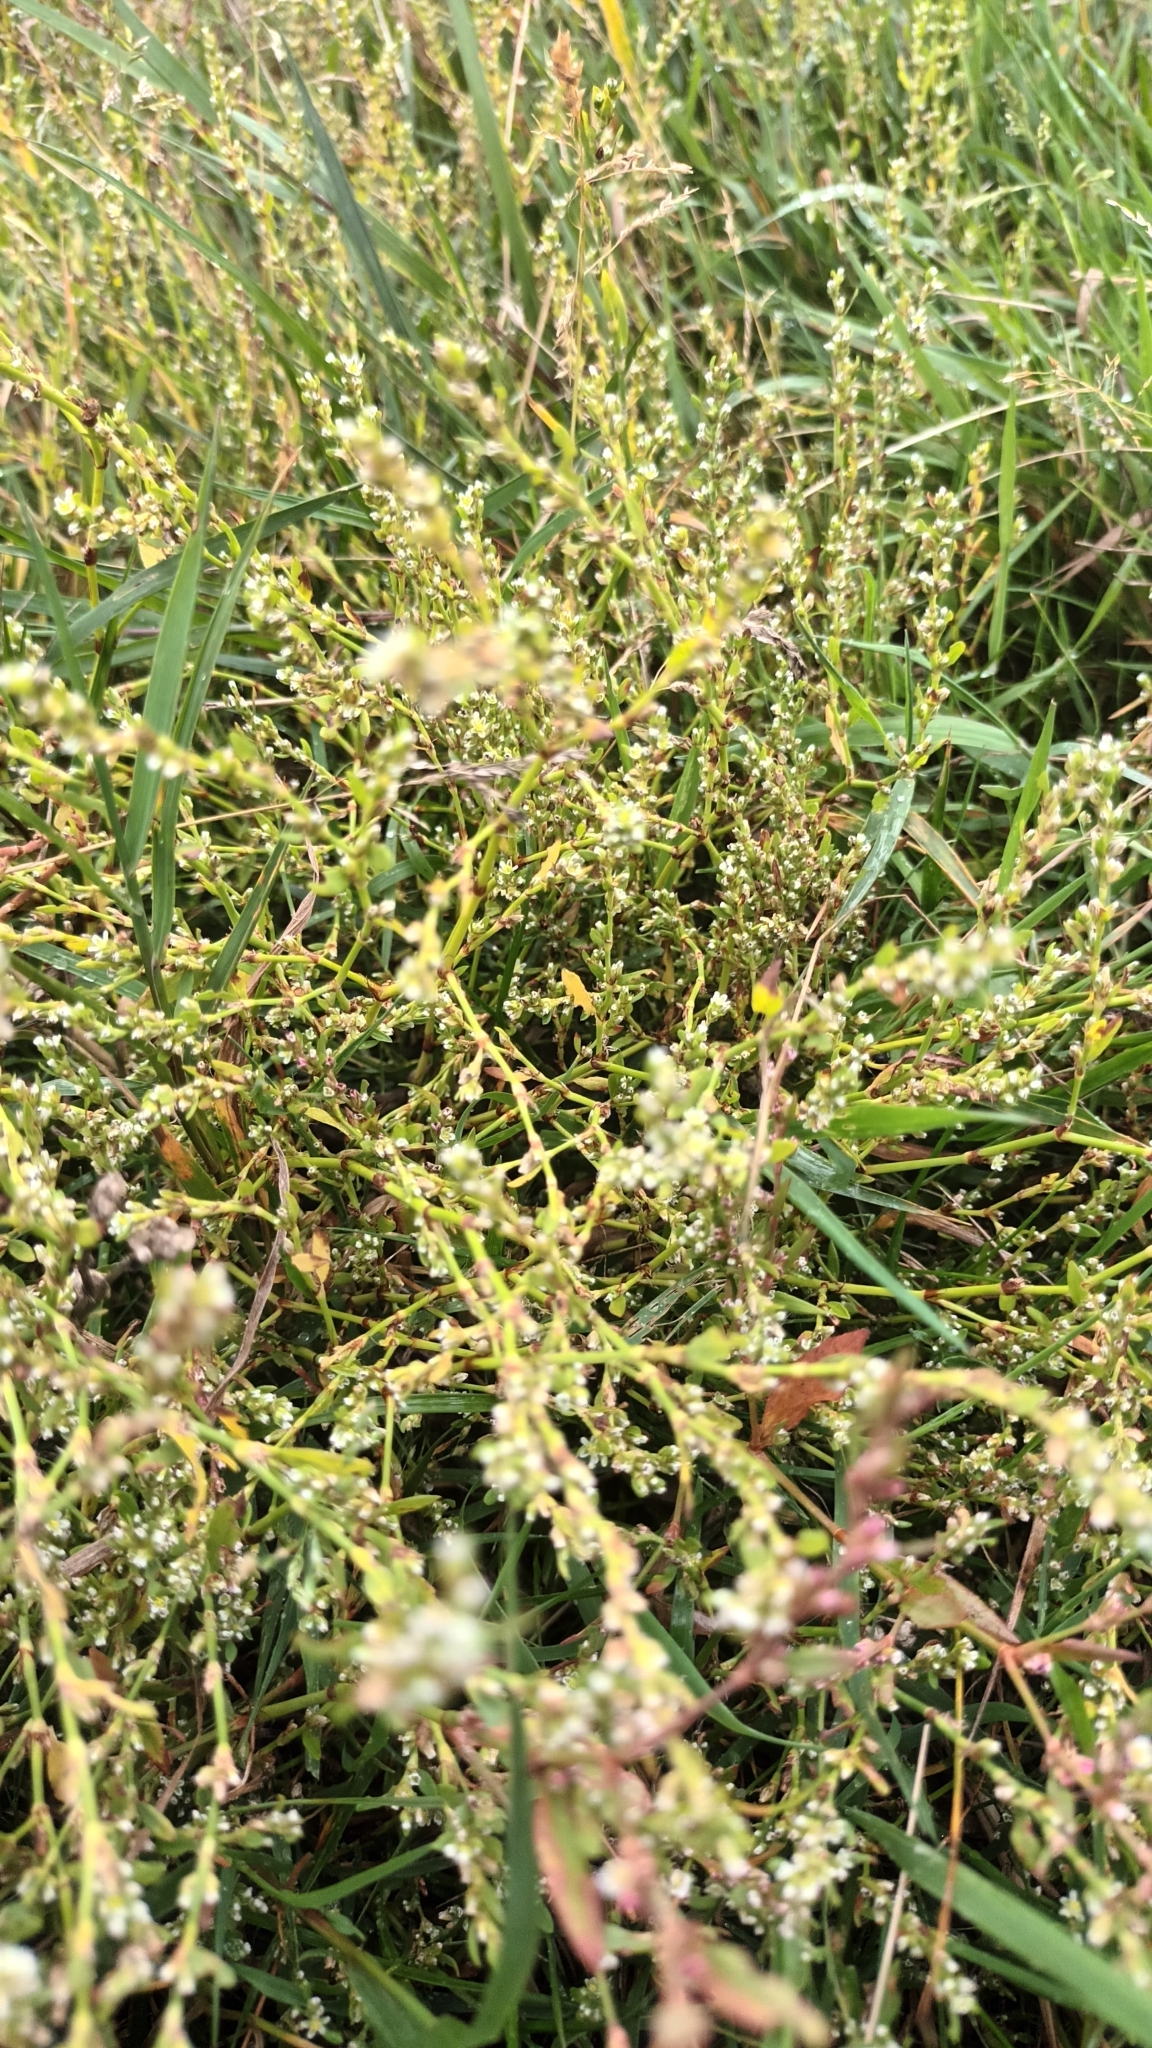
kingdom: Plantae
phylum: Tracheophyta
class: Magnoliopsida
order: Caryophyllales
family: Polygonaceae
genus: Polygonum
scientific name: Polygonum aviculare
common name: Prostrate knotweed
